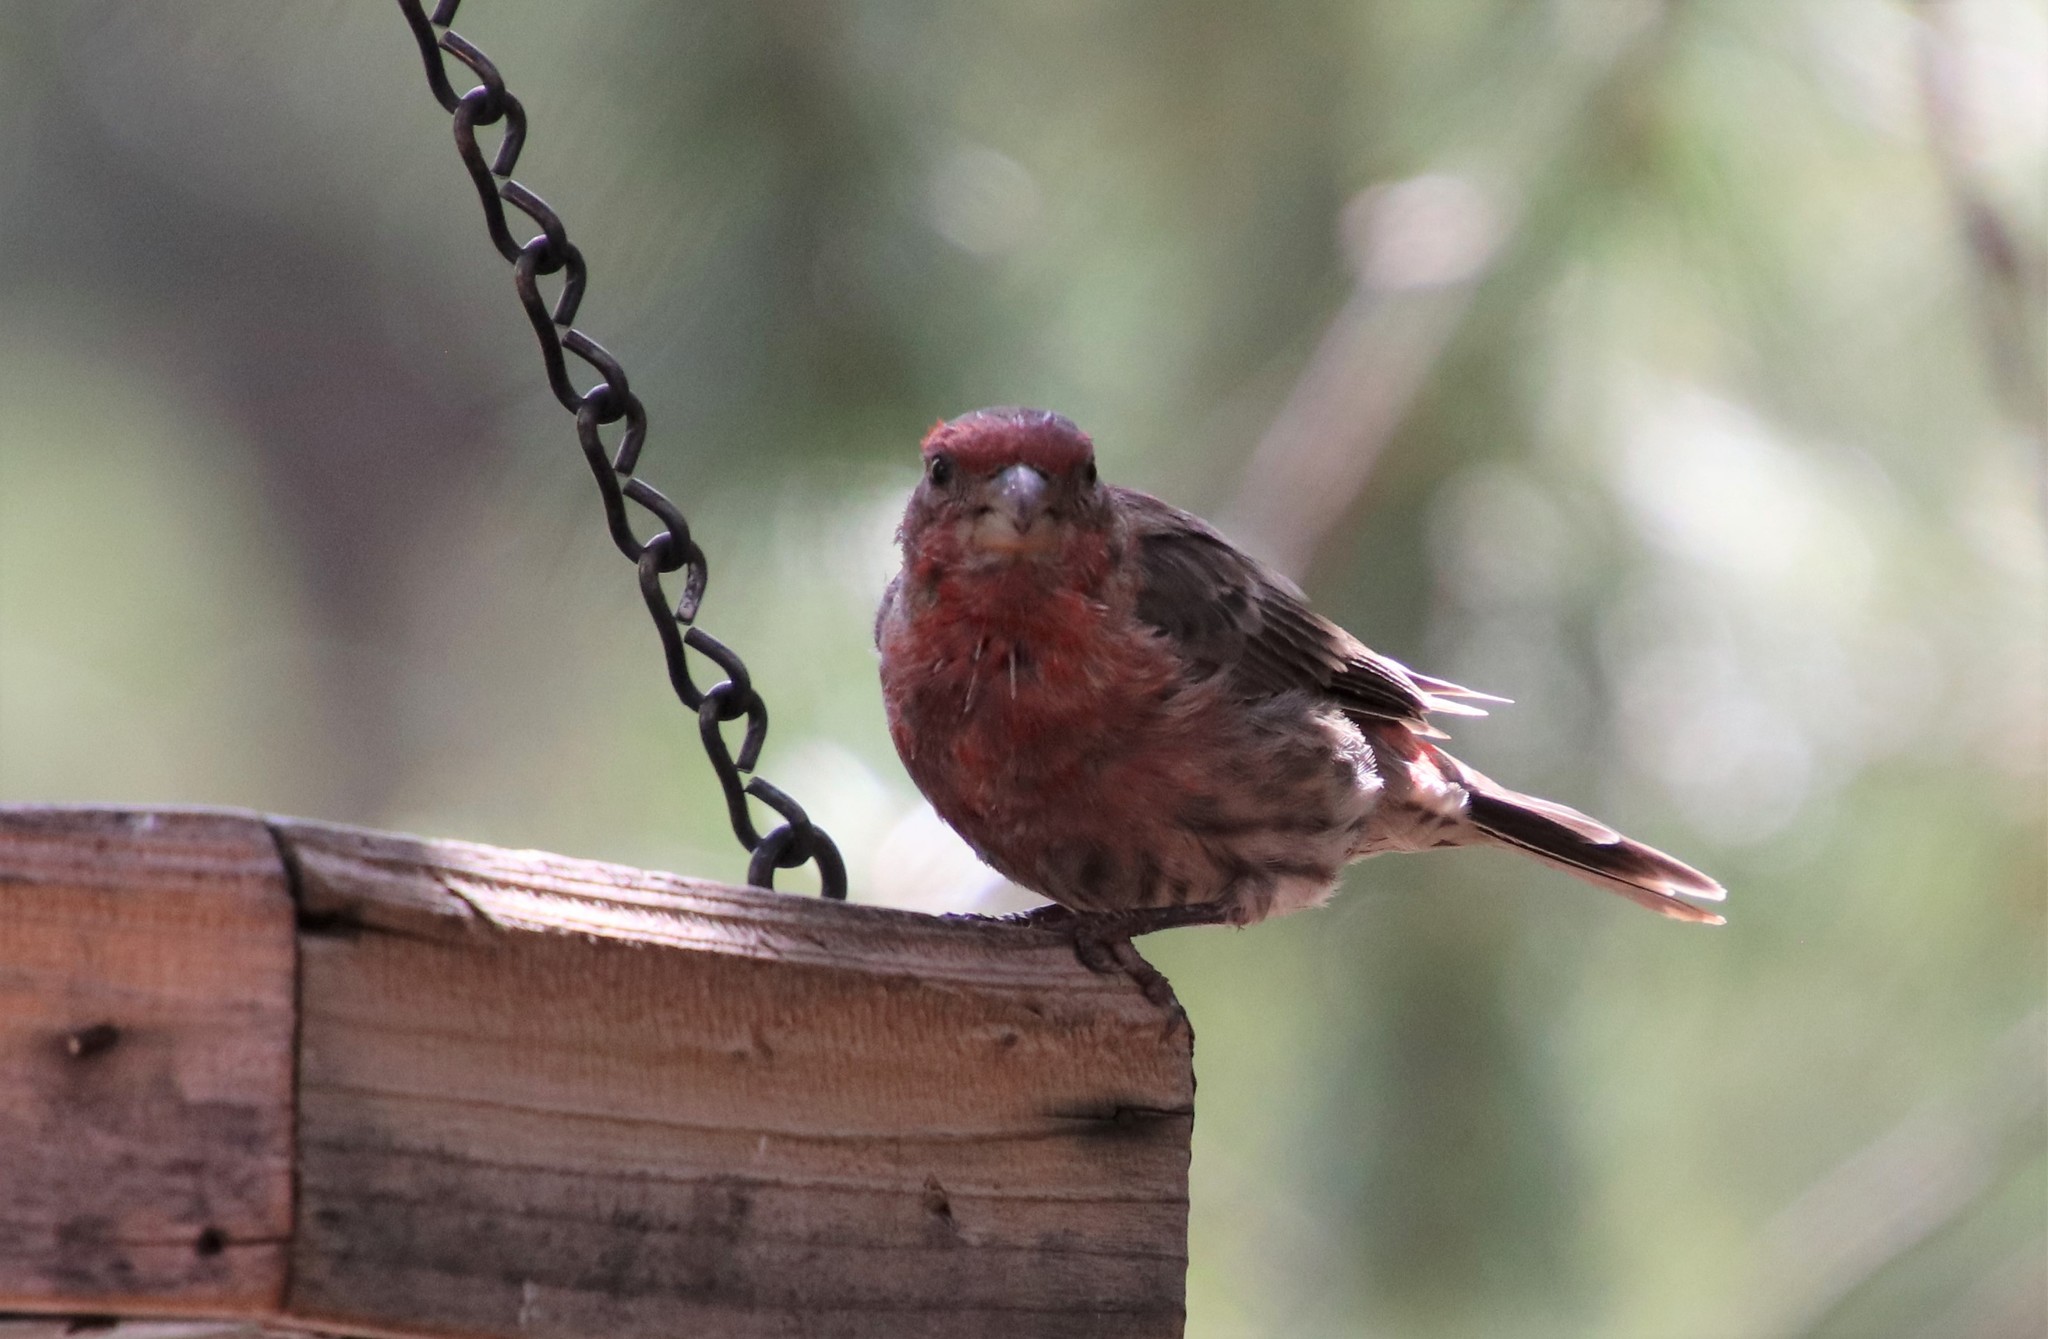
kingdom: Animalia
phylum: Chordata
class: Aves
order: Passeriformes
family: Fringillidae
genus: Haemorhous
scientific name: Haemorhous mexicanus
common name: House finch
